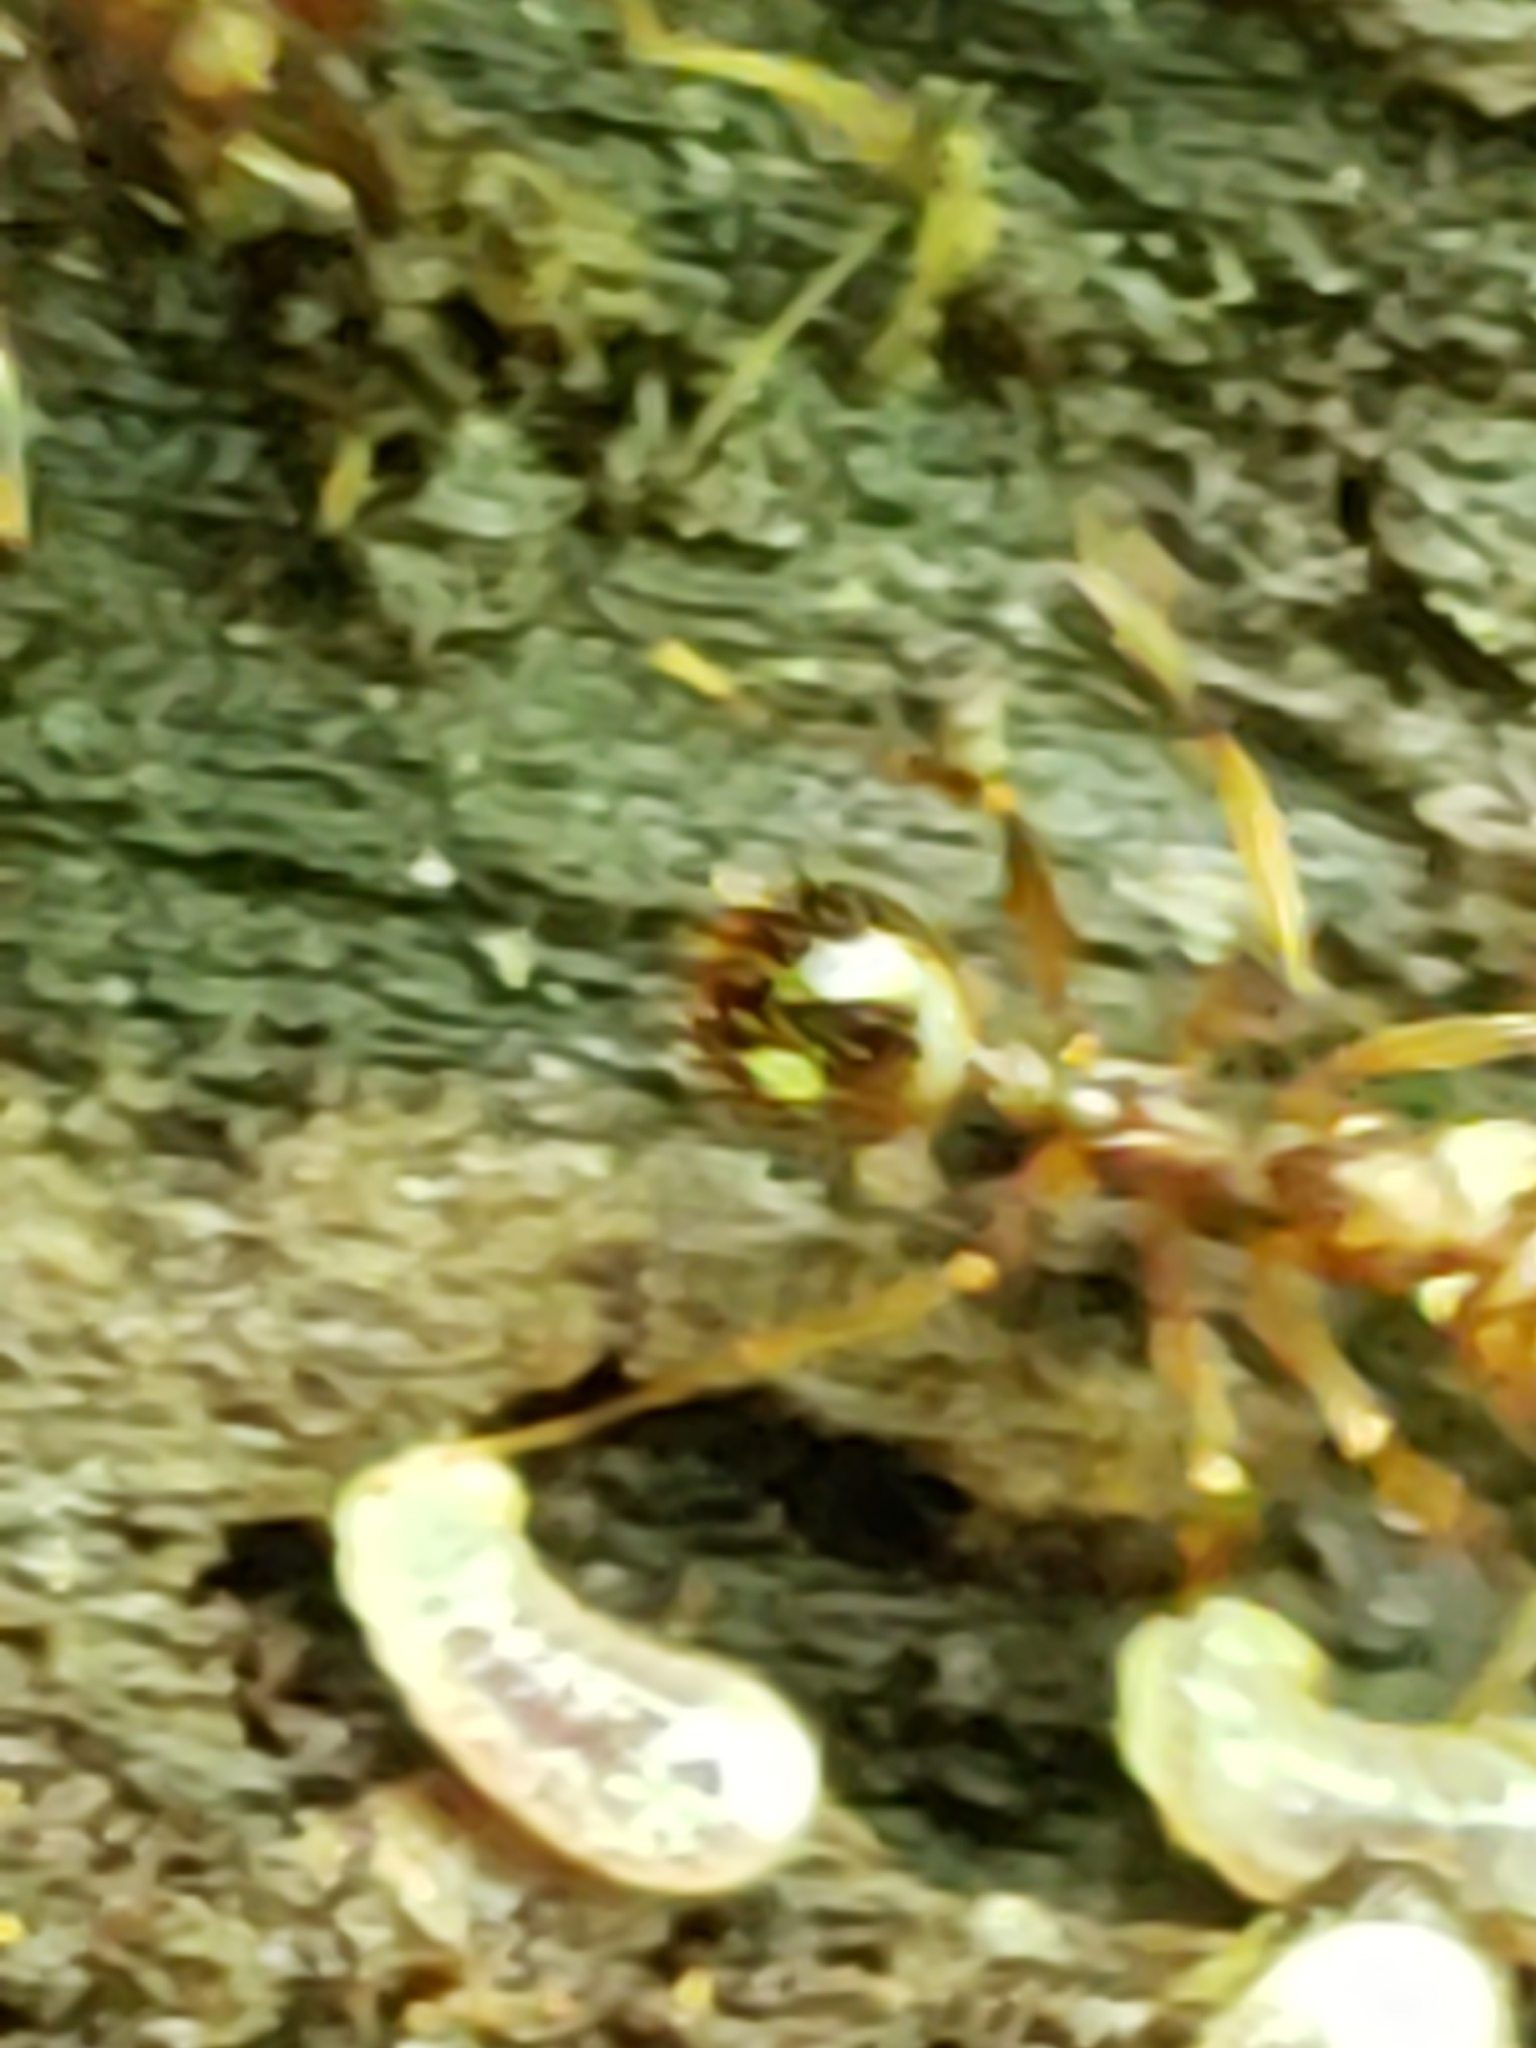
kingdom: Animalia
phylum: Arthropoda
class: Insecta
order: Hymenoptera
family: Formicidae
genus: Aphaenogaster
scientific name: Aphaenogaster rudis
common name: Winnow ant
